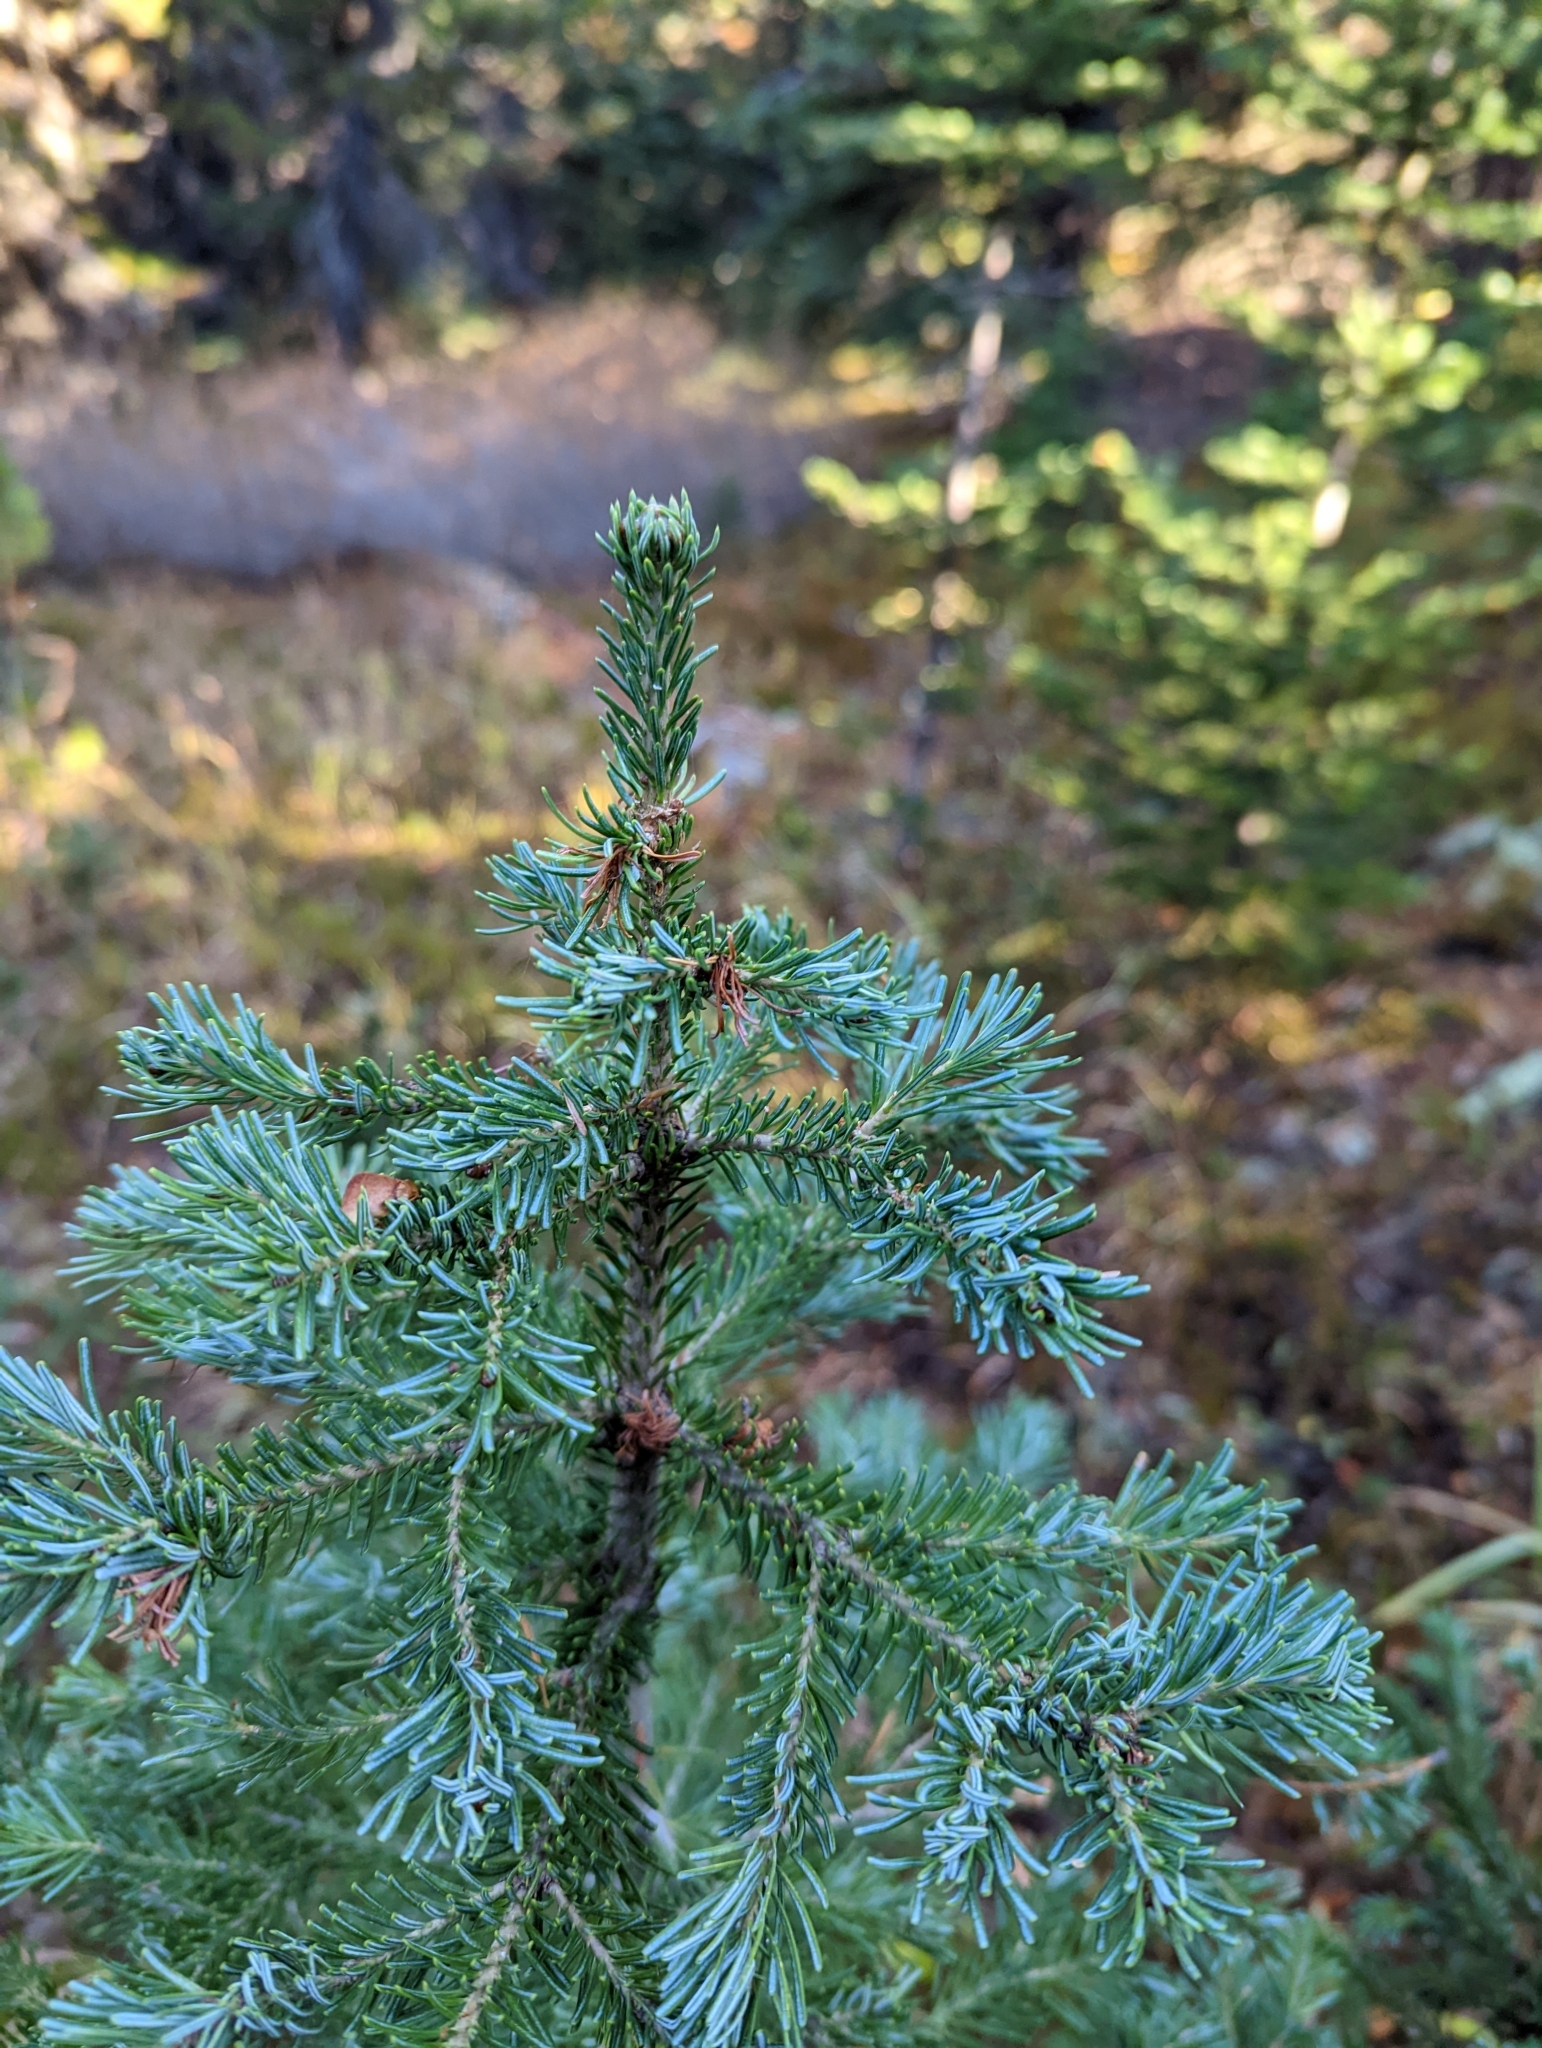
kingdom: Plantae
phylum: Tracheophyta
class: Pinopsida
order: Pinales
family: Pinaceae
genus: Abies
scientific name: Abies lasiocarpa
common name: Subalpine fir
